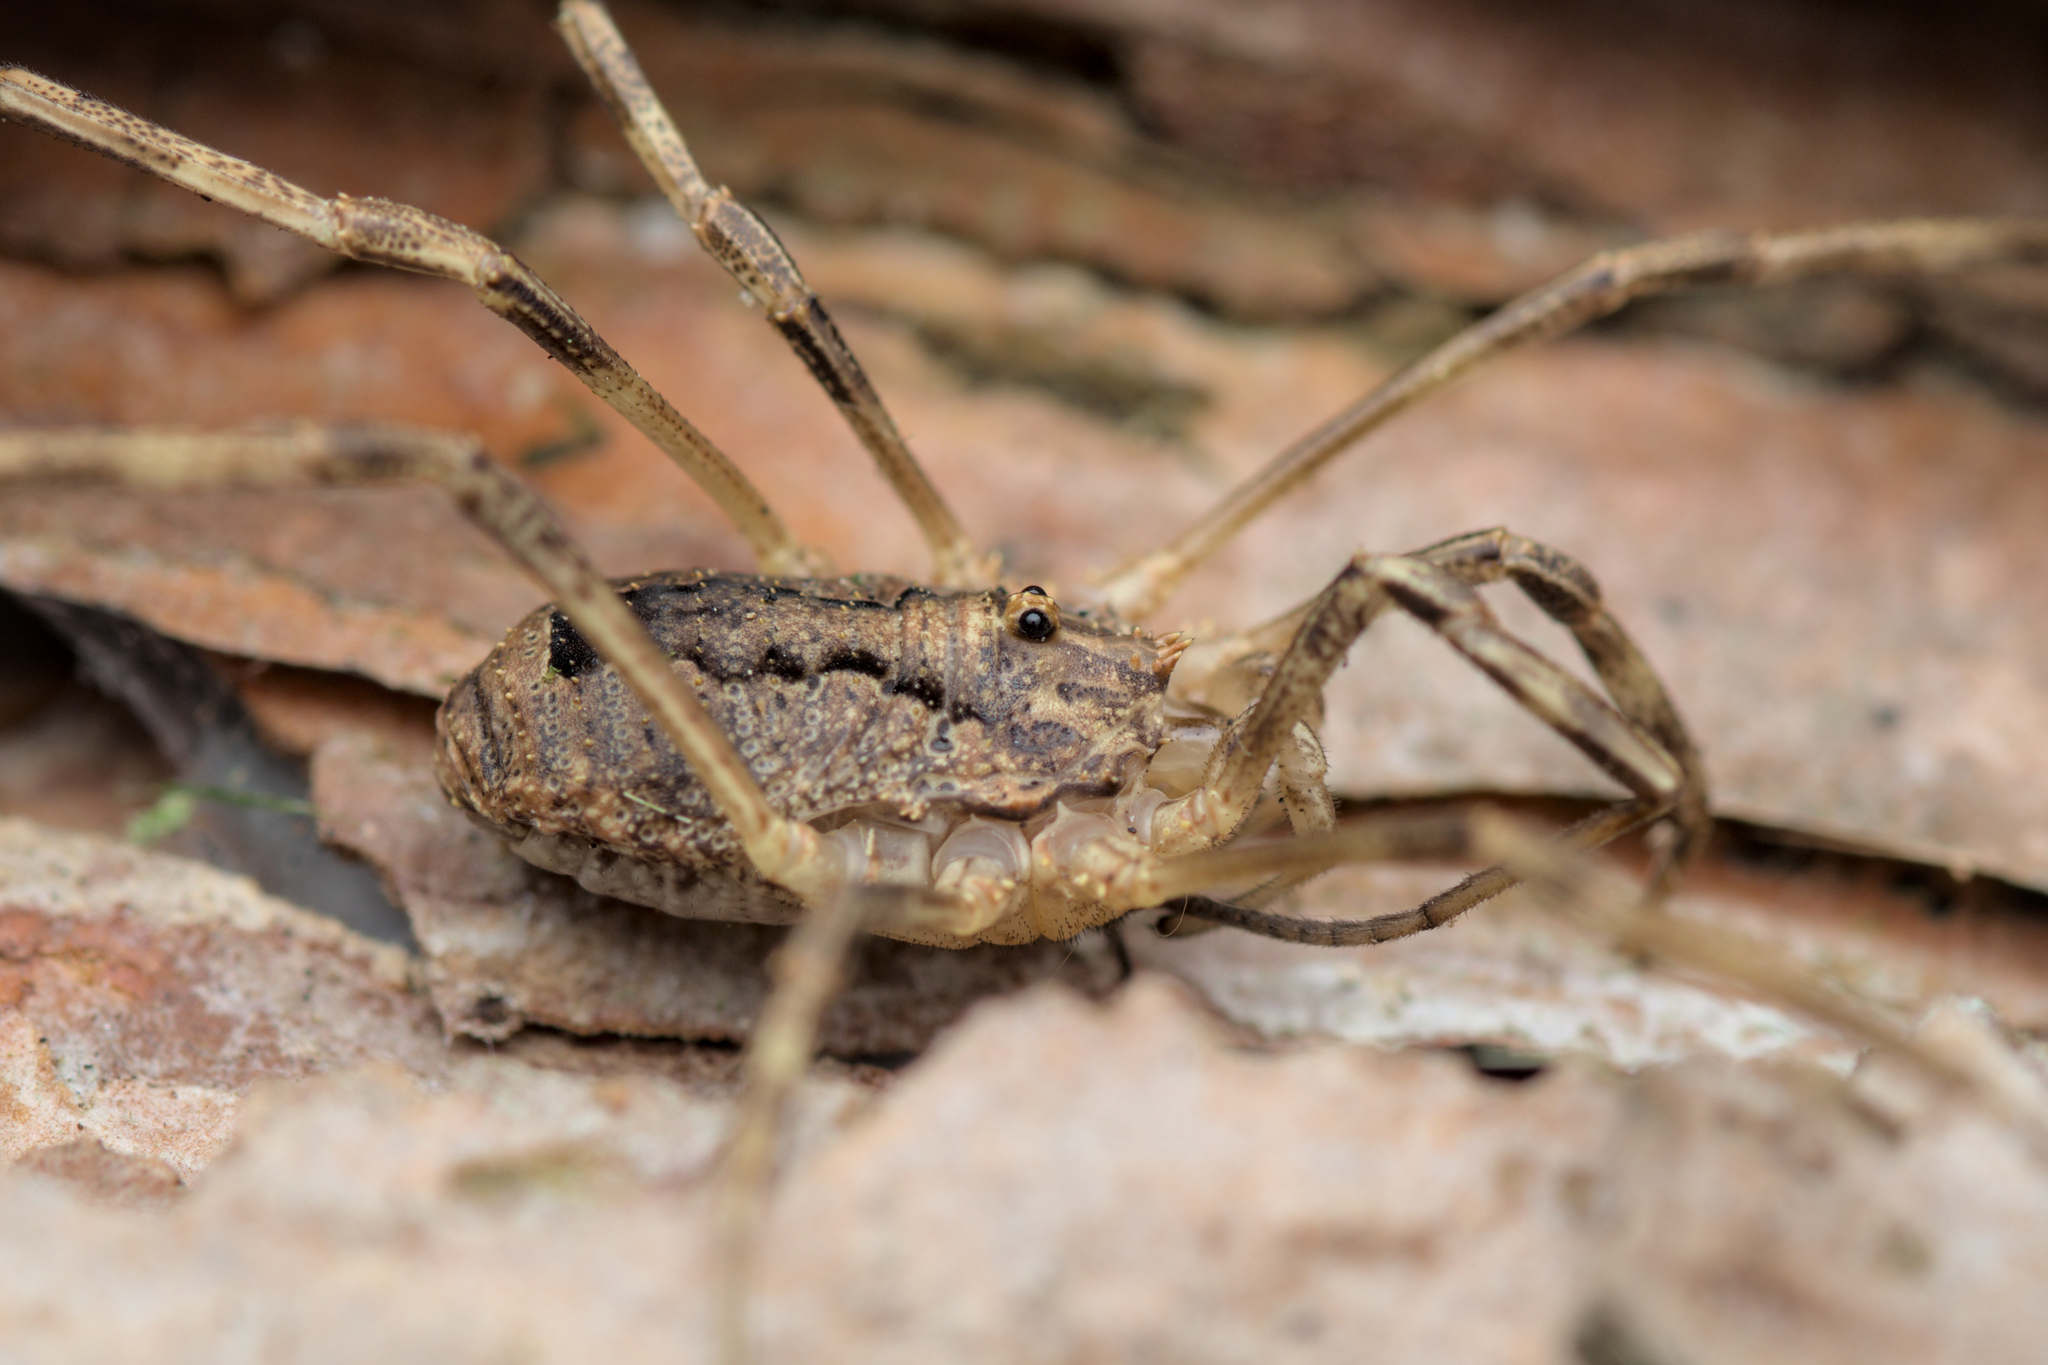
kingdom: Animalia
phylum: Arthropoda
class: Arachnida
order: Opiliones
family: Phalangiidae
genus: Odiellus
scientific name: Odiellus spinosus
